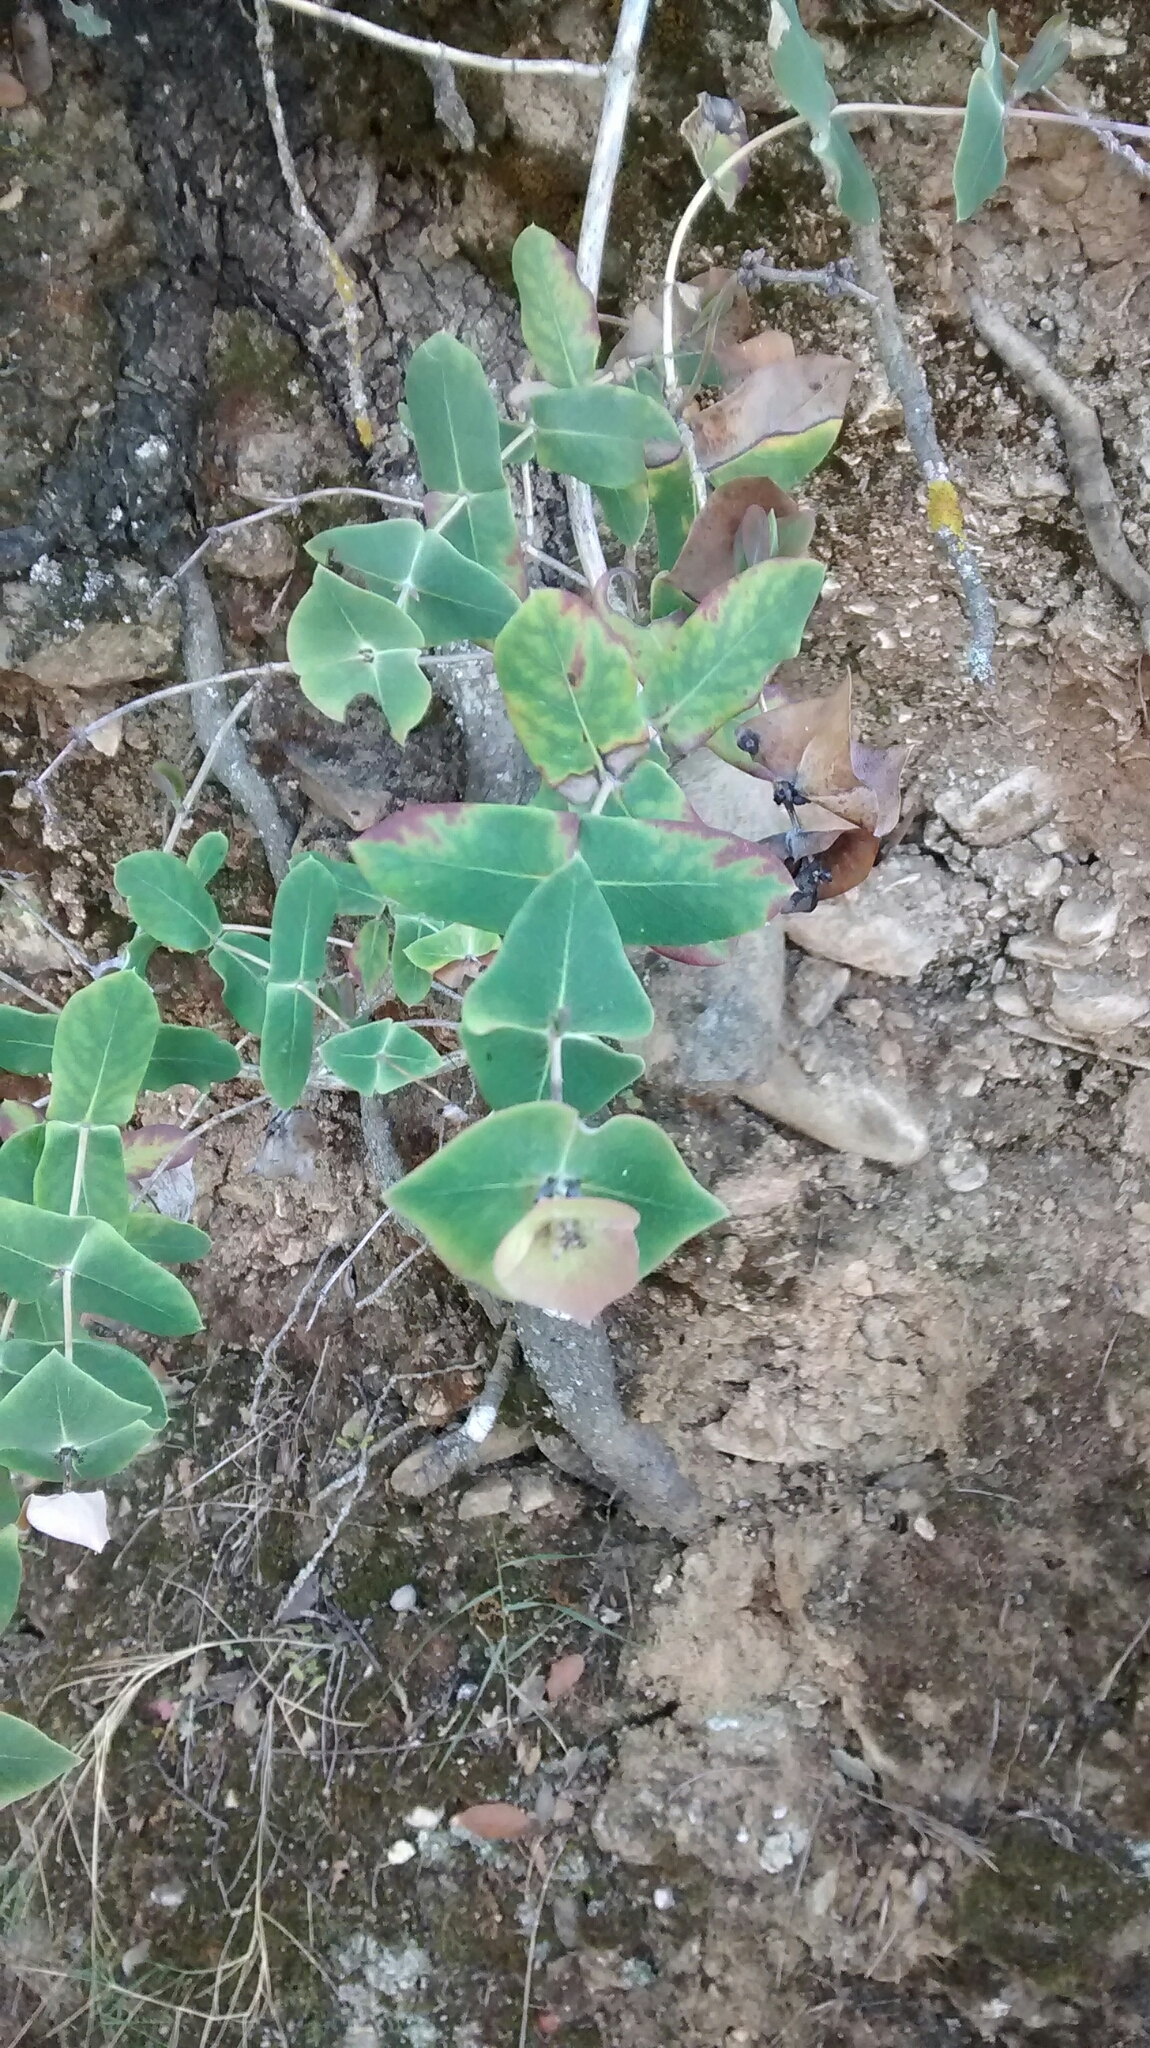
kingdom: Plantae
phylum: Tracheophyta
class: Magnoliopsida
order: Dipsacales
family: Caprifoliaceae
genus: Lonicera
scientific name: Lonicera implexa
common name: Minorca honeysuckle
